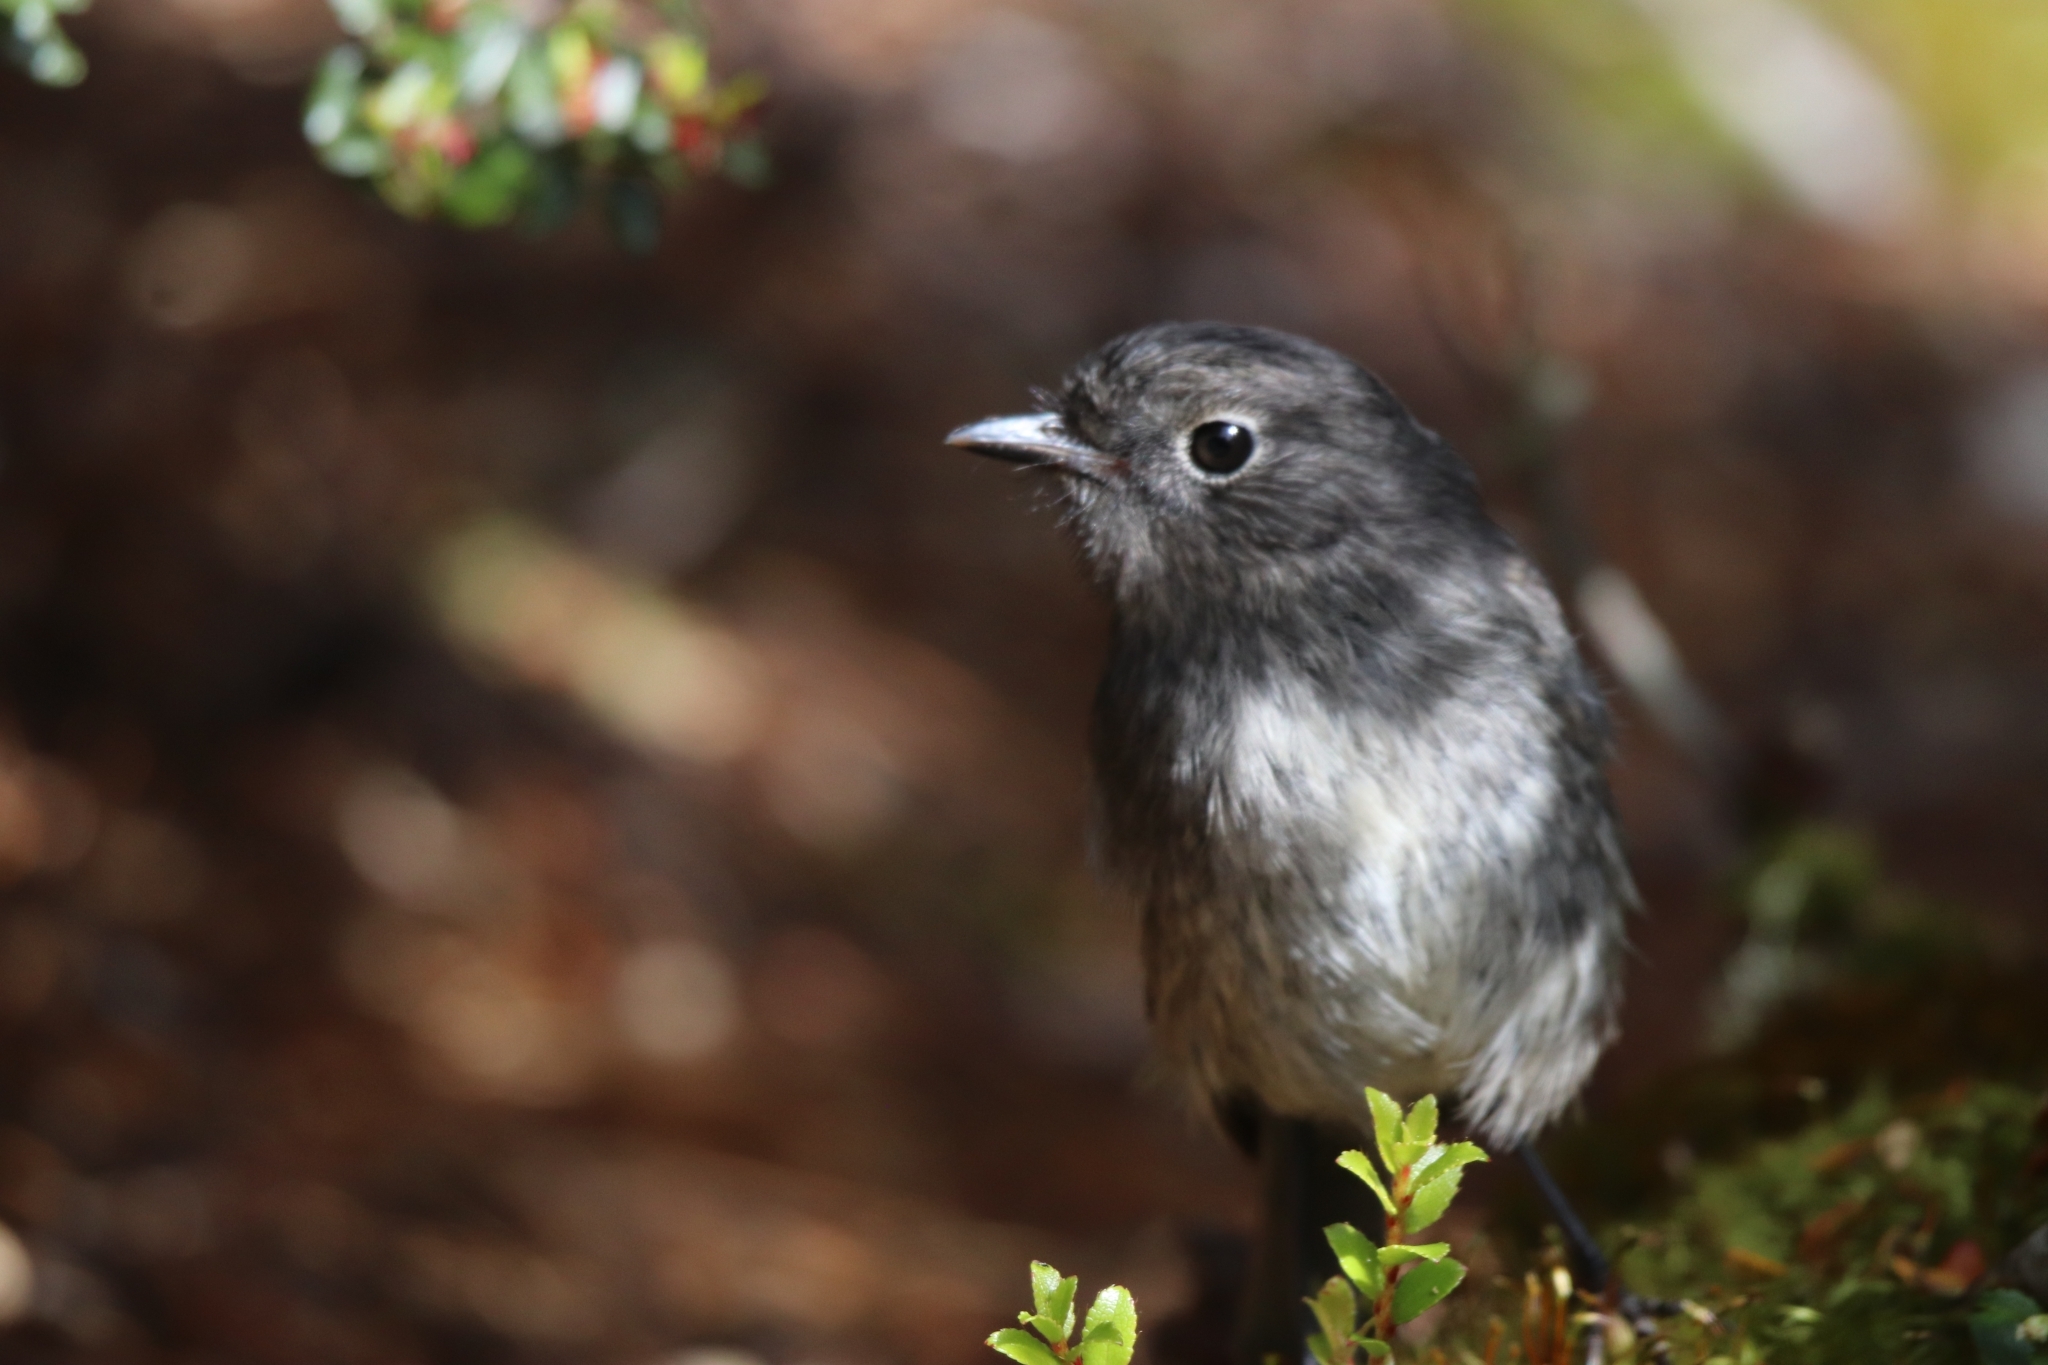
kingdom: Animalia
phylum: Chordata
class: Aves
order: Passeriformes
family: Petroicidae
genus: Petroica
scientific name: Petroica australis
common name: New zealand robin
